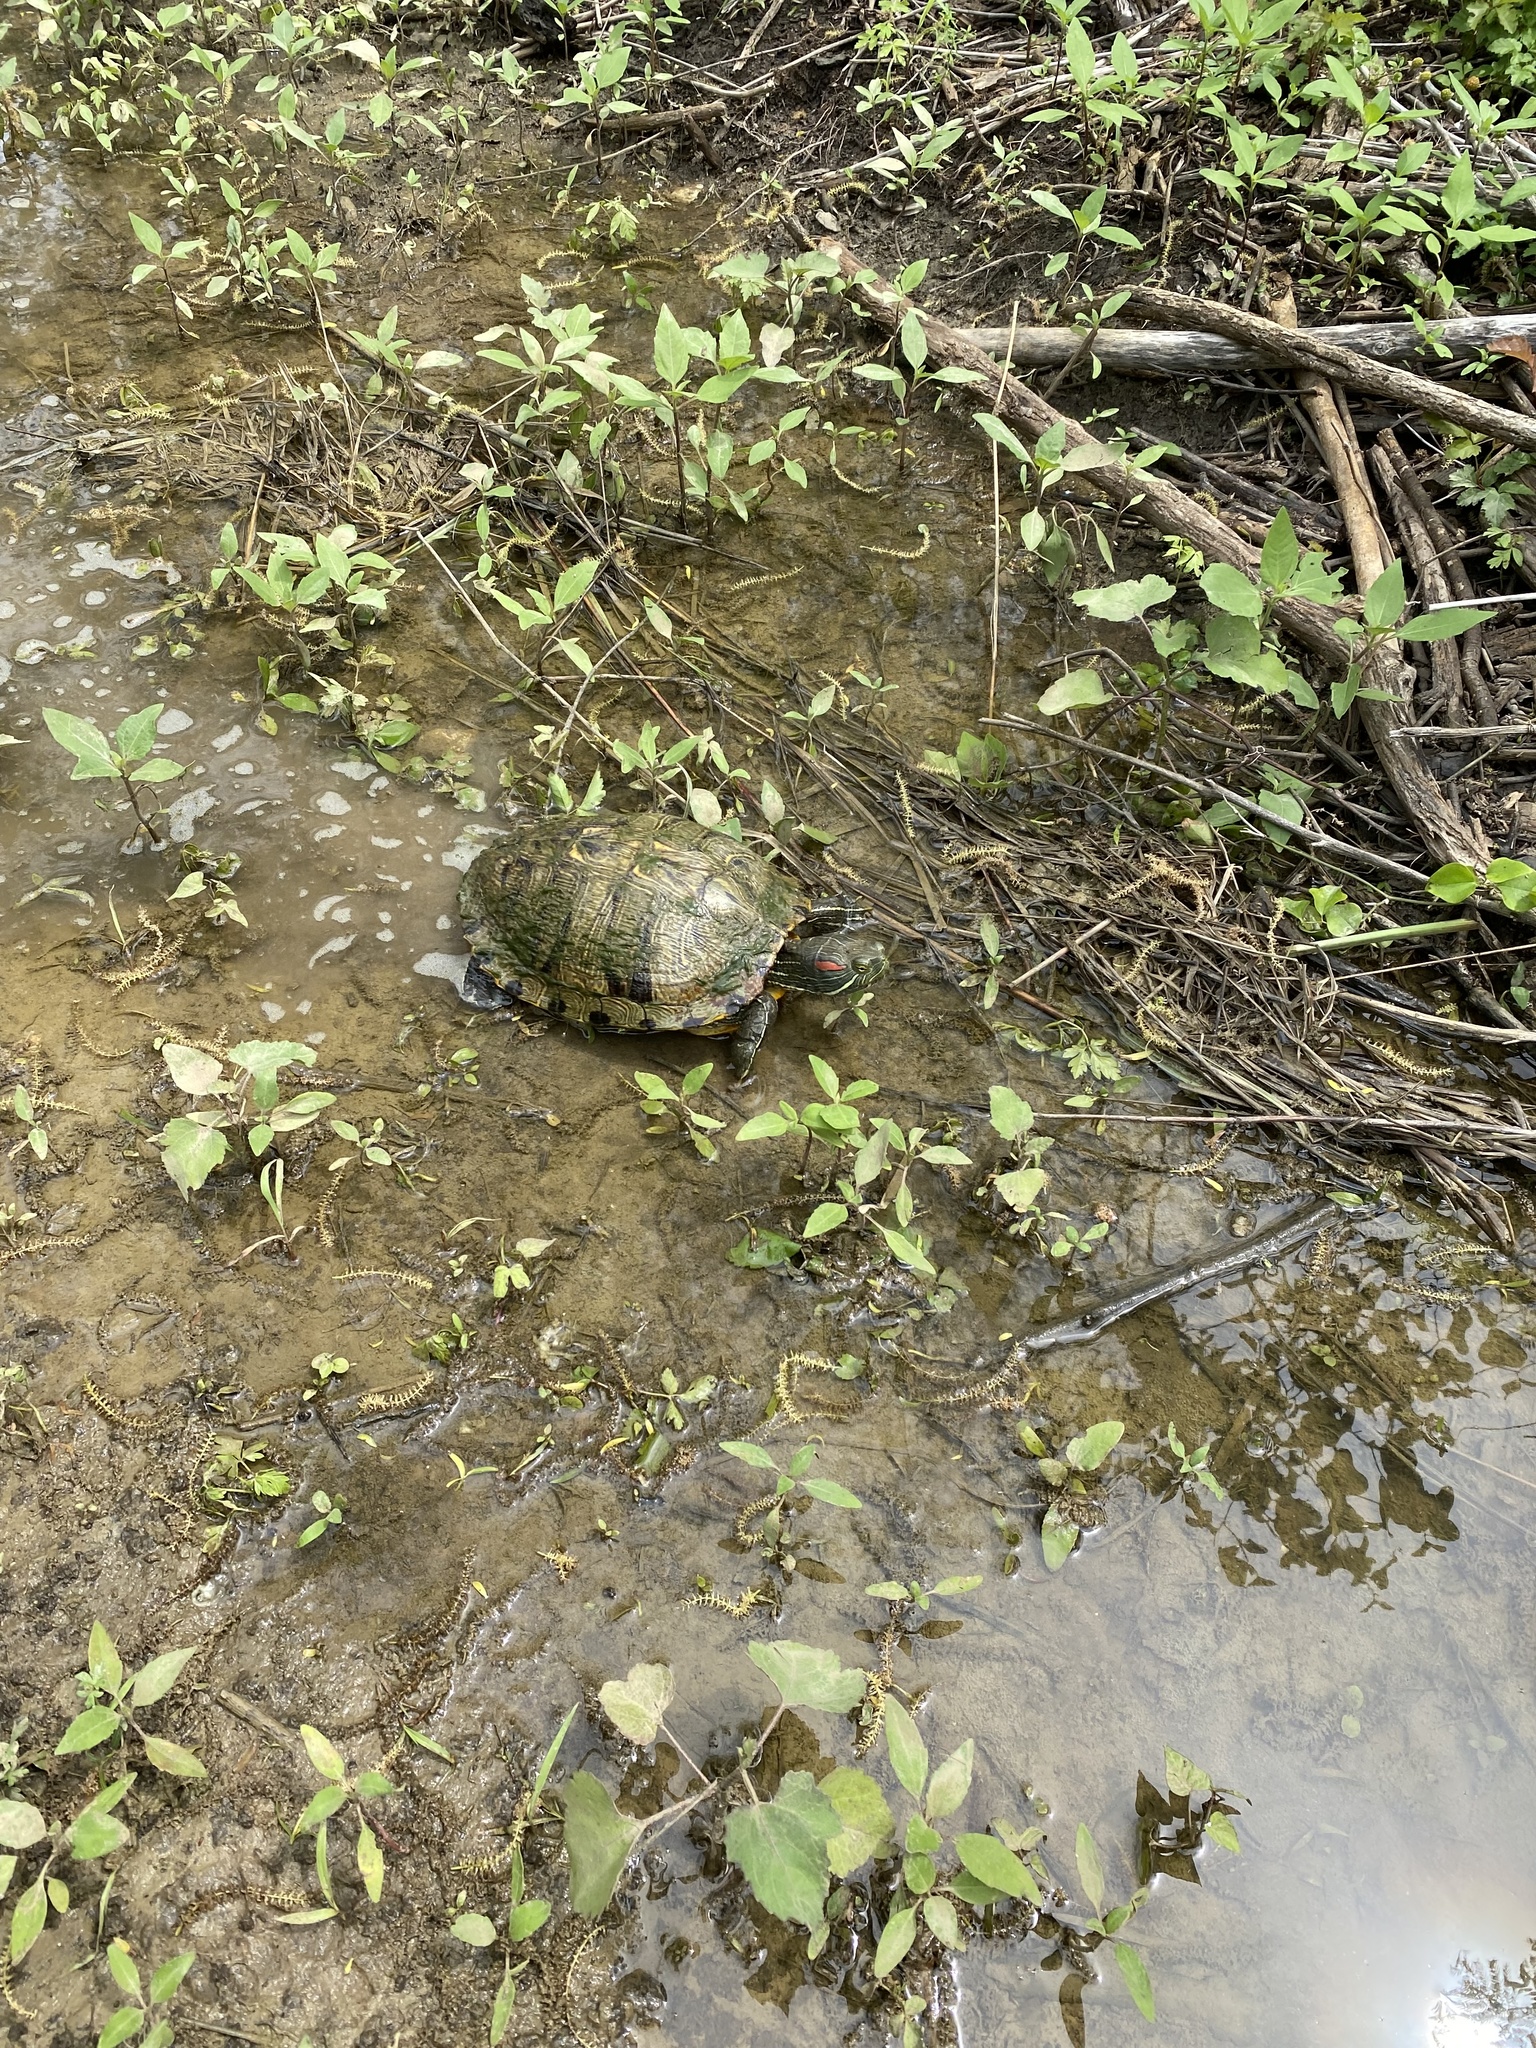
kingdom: Animalia
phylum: Chordata
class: Testudines
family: Emydidae
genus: Trachemys
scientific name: Trachemys scripta
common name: Slider
